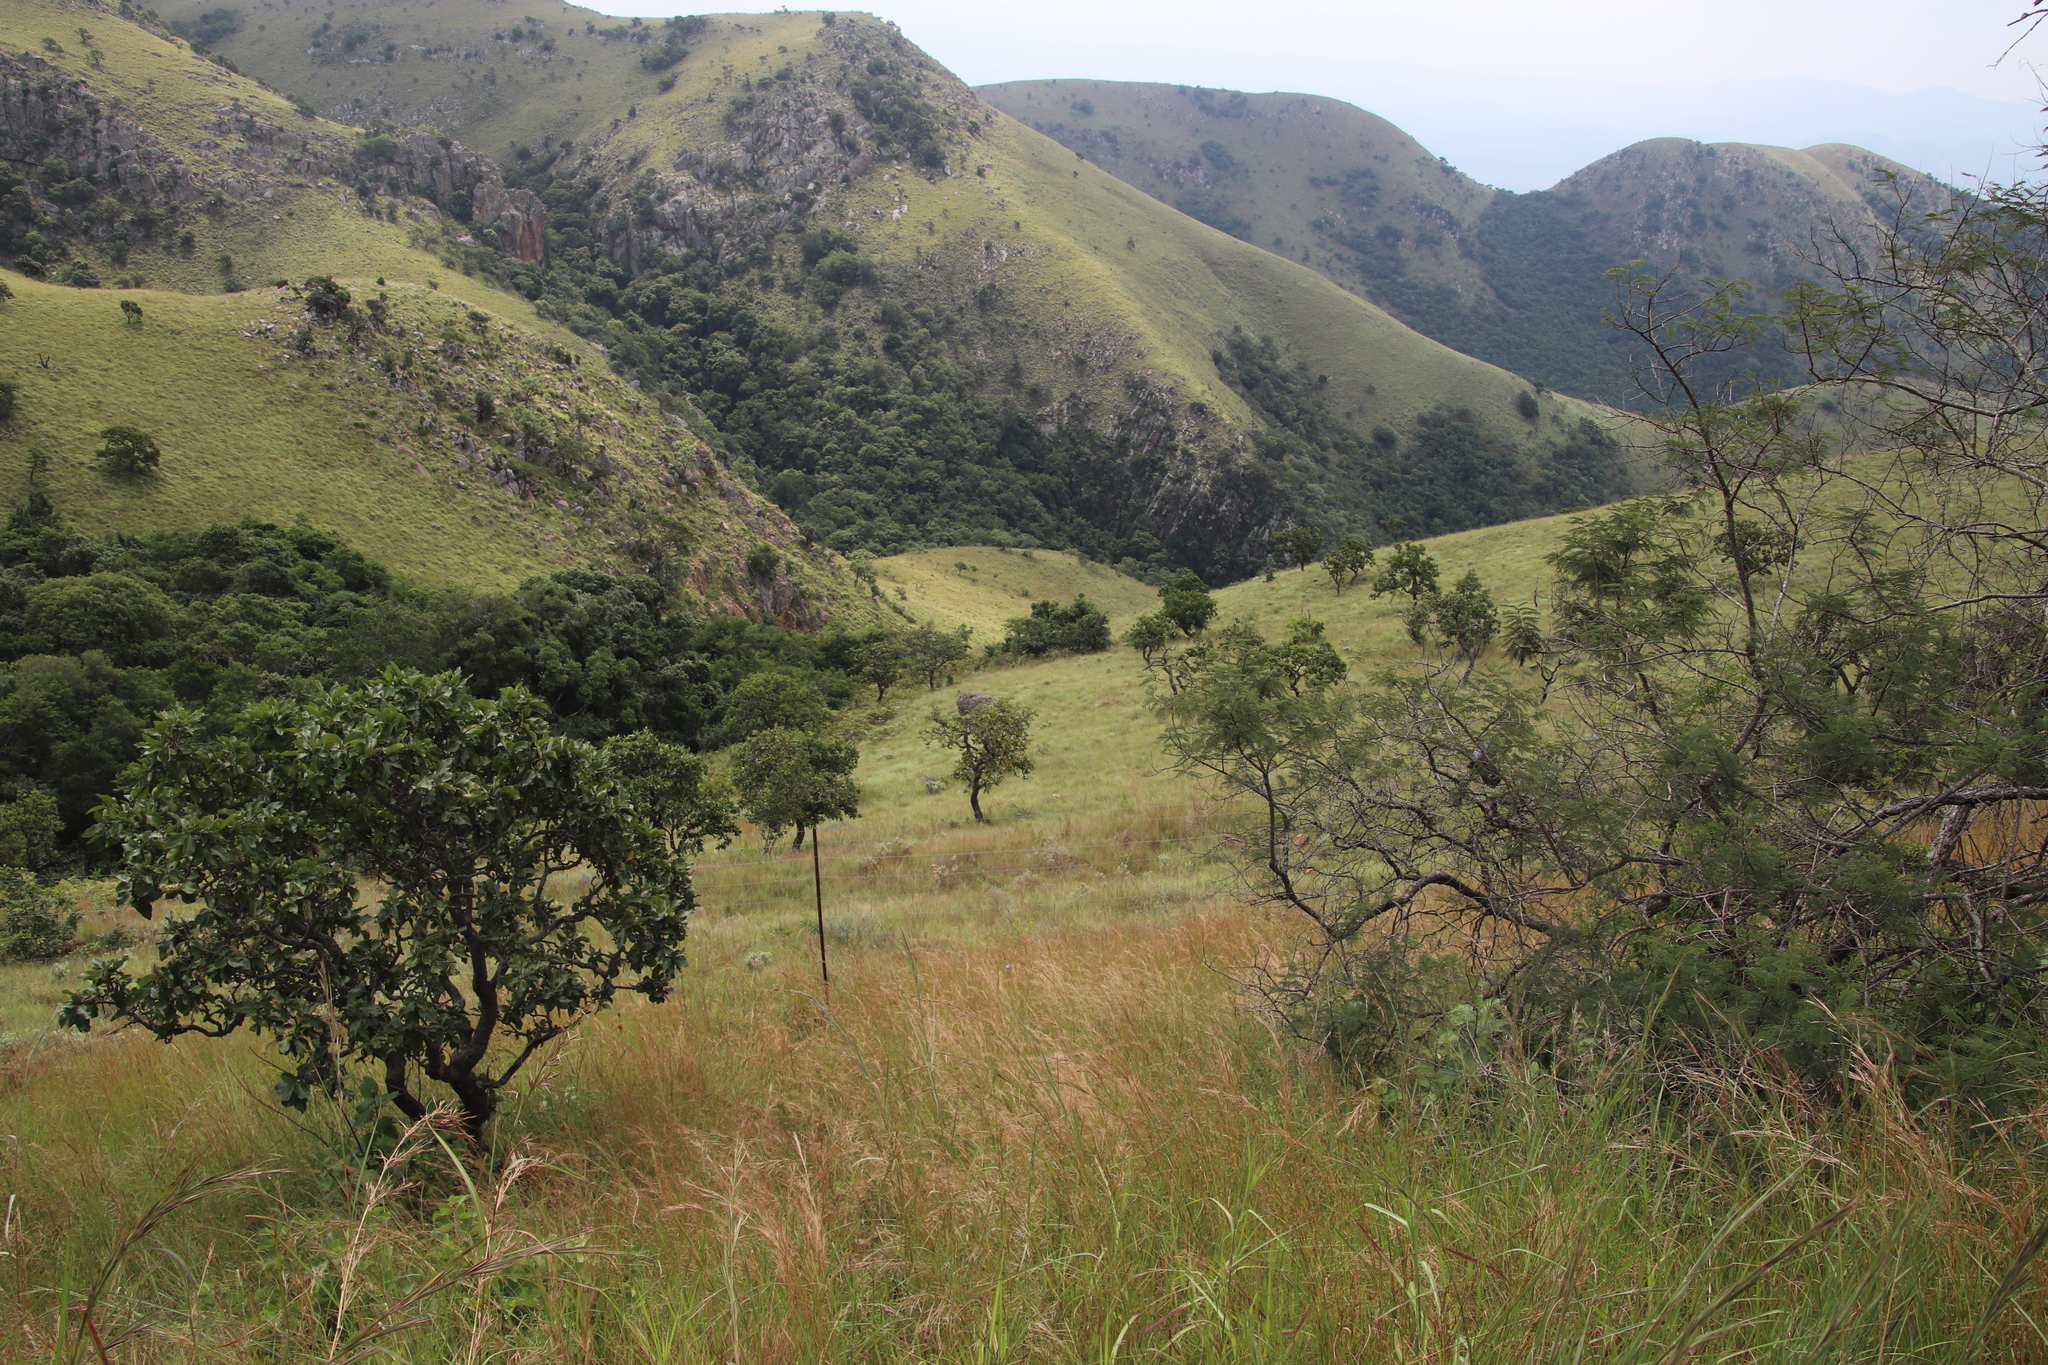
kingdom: Plantae
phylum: Tracheophyta
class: Magnoliopsida
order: Proteales
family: Proteaceae
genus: Faurea
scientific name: Faurea rochetiana
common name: Broad-leaved beech
